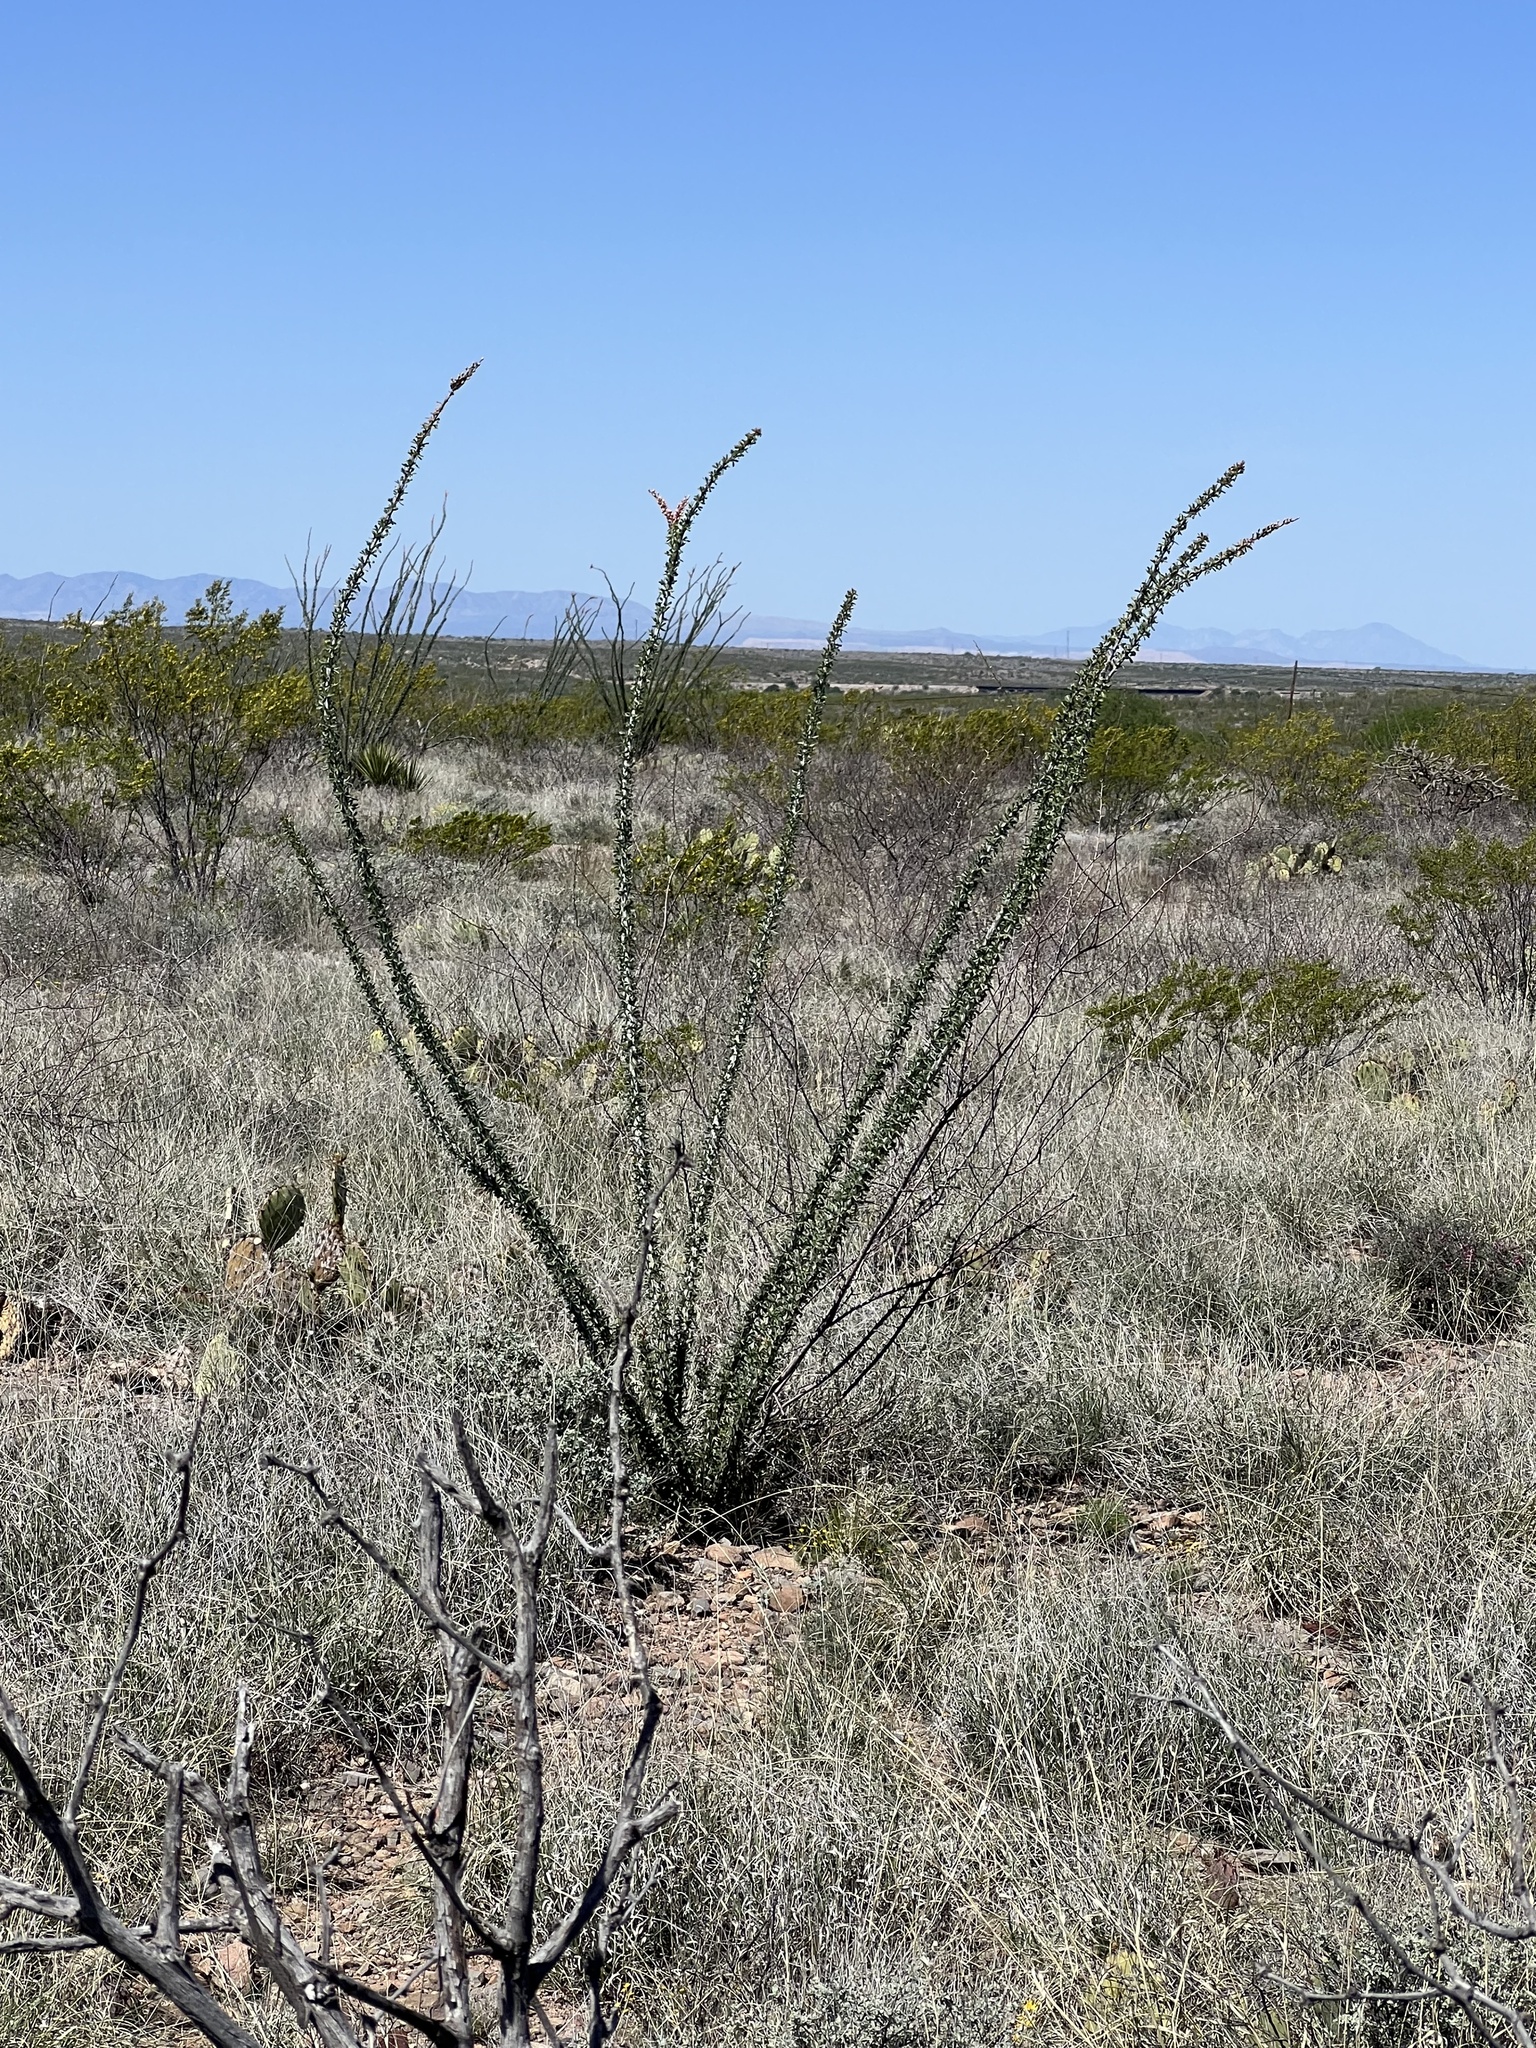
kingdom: Plantae
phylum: Tracheophyta
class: Magnoliopsida
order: Ericales
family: Fouquieriaceae
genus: Fouquieria
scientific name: Fouquieria splendens
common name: Vine-cactus
